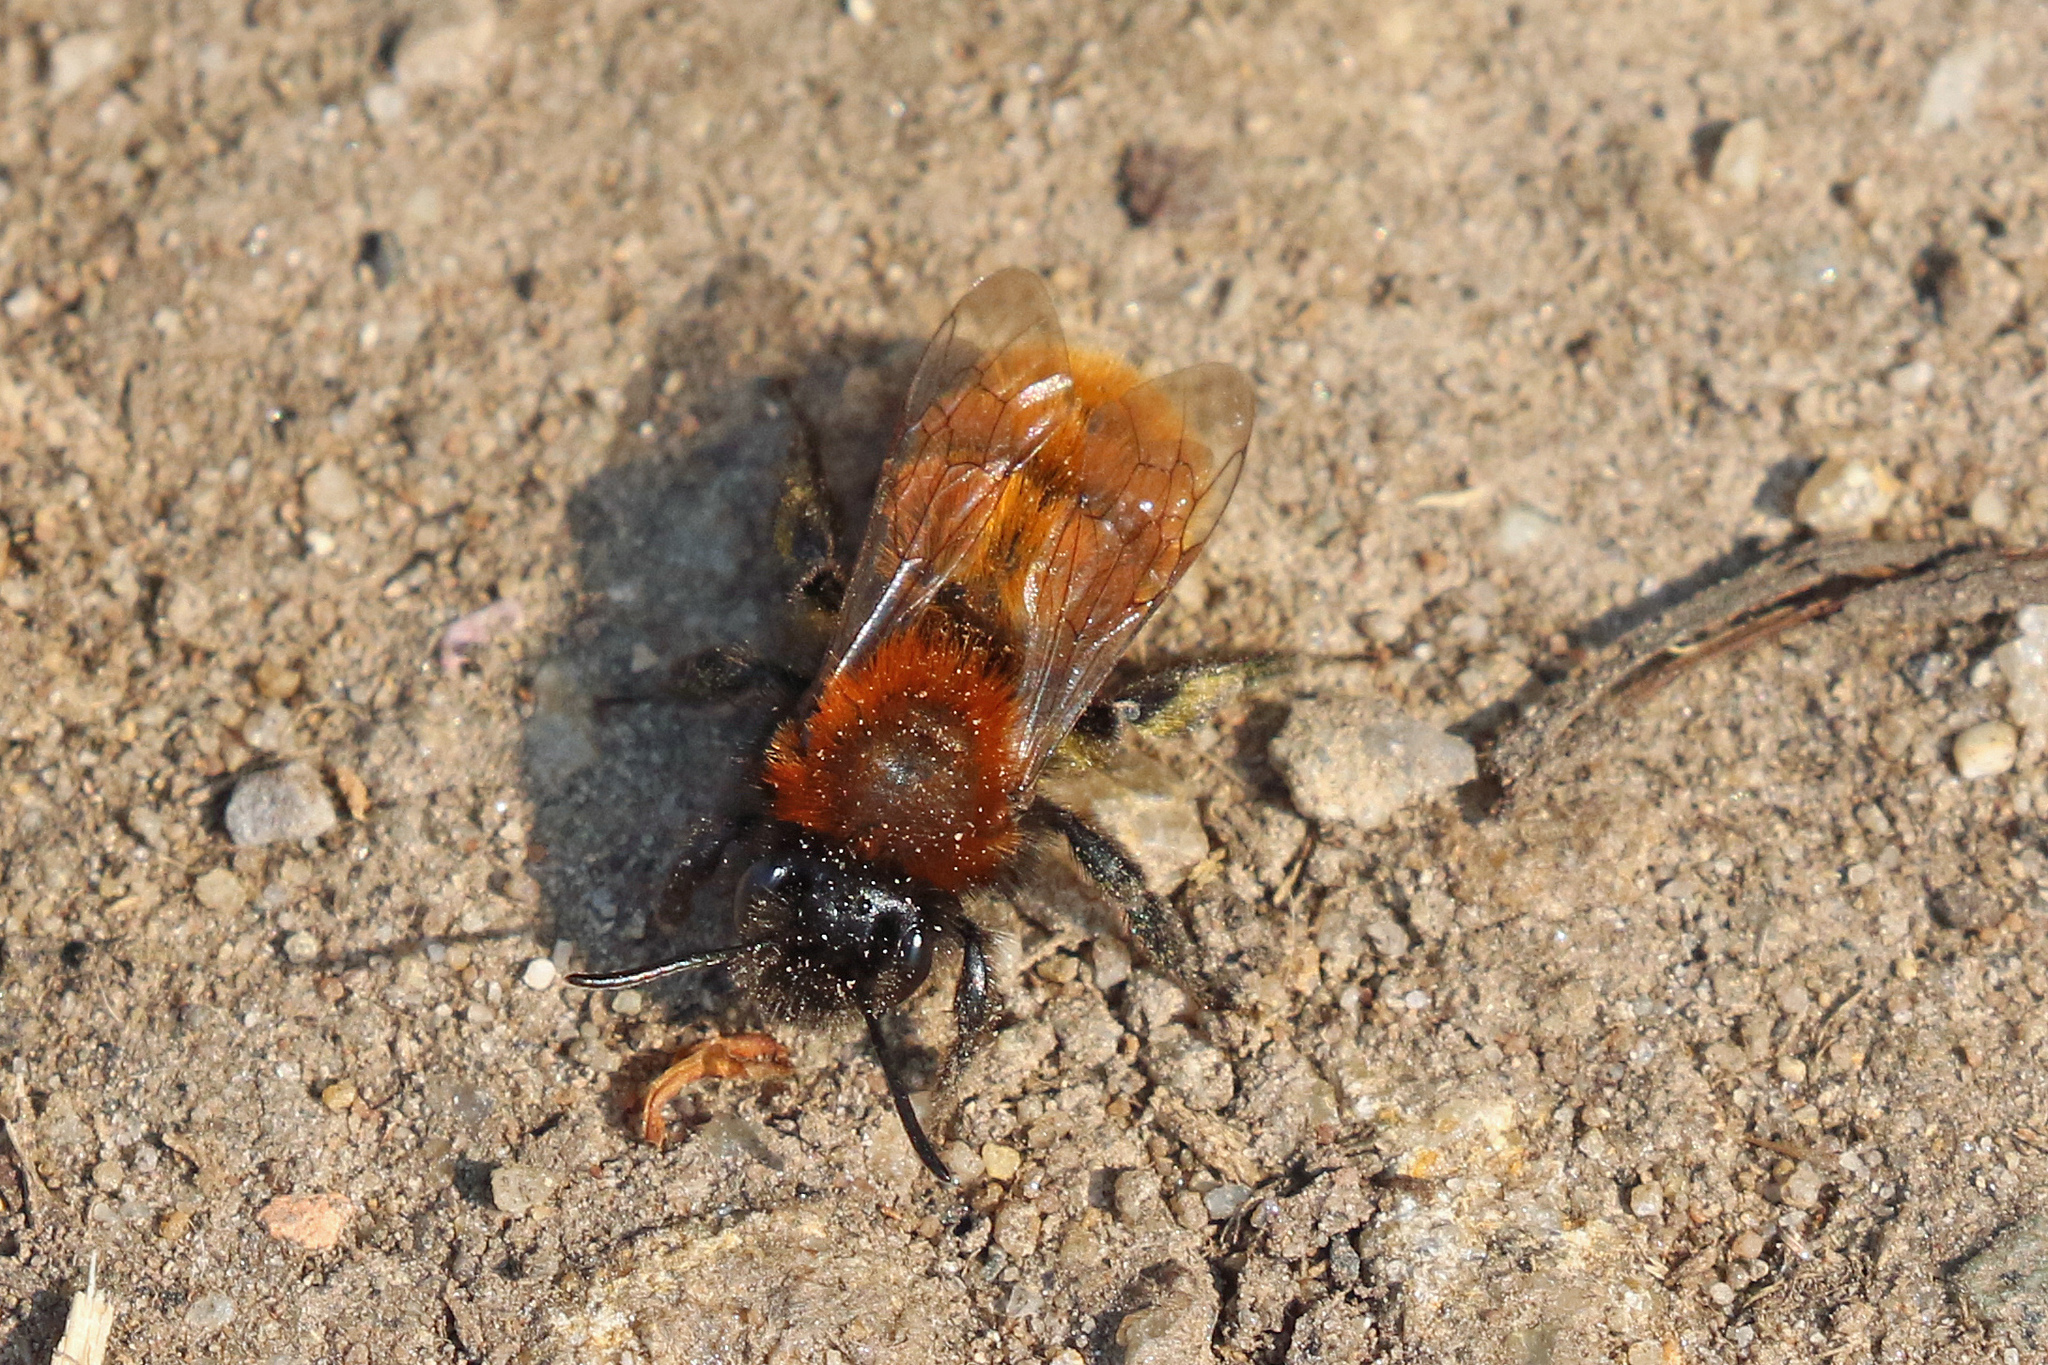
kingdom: Animalia
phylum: Arthropoda
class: Insecta
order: Hymenoptera
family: Andrenidae
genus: Andrena
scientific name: Andrena fulva
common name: Tawny mining bee
